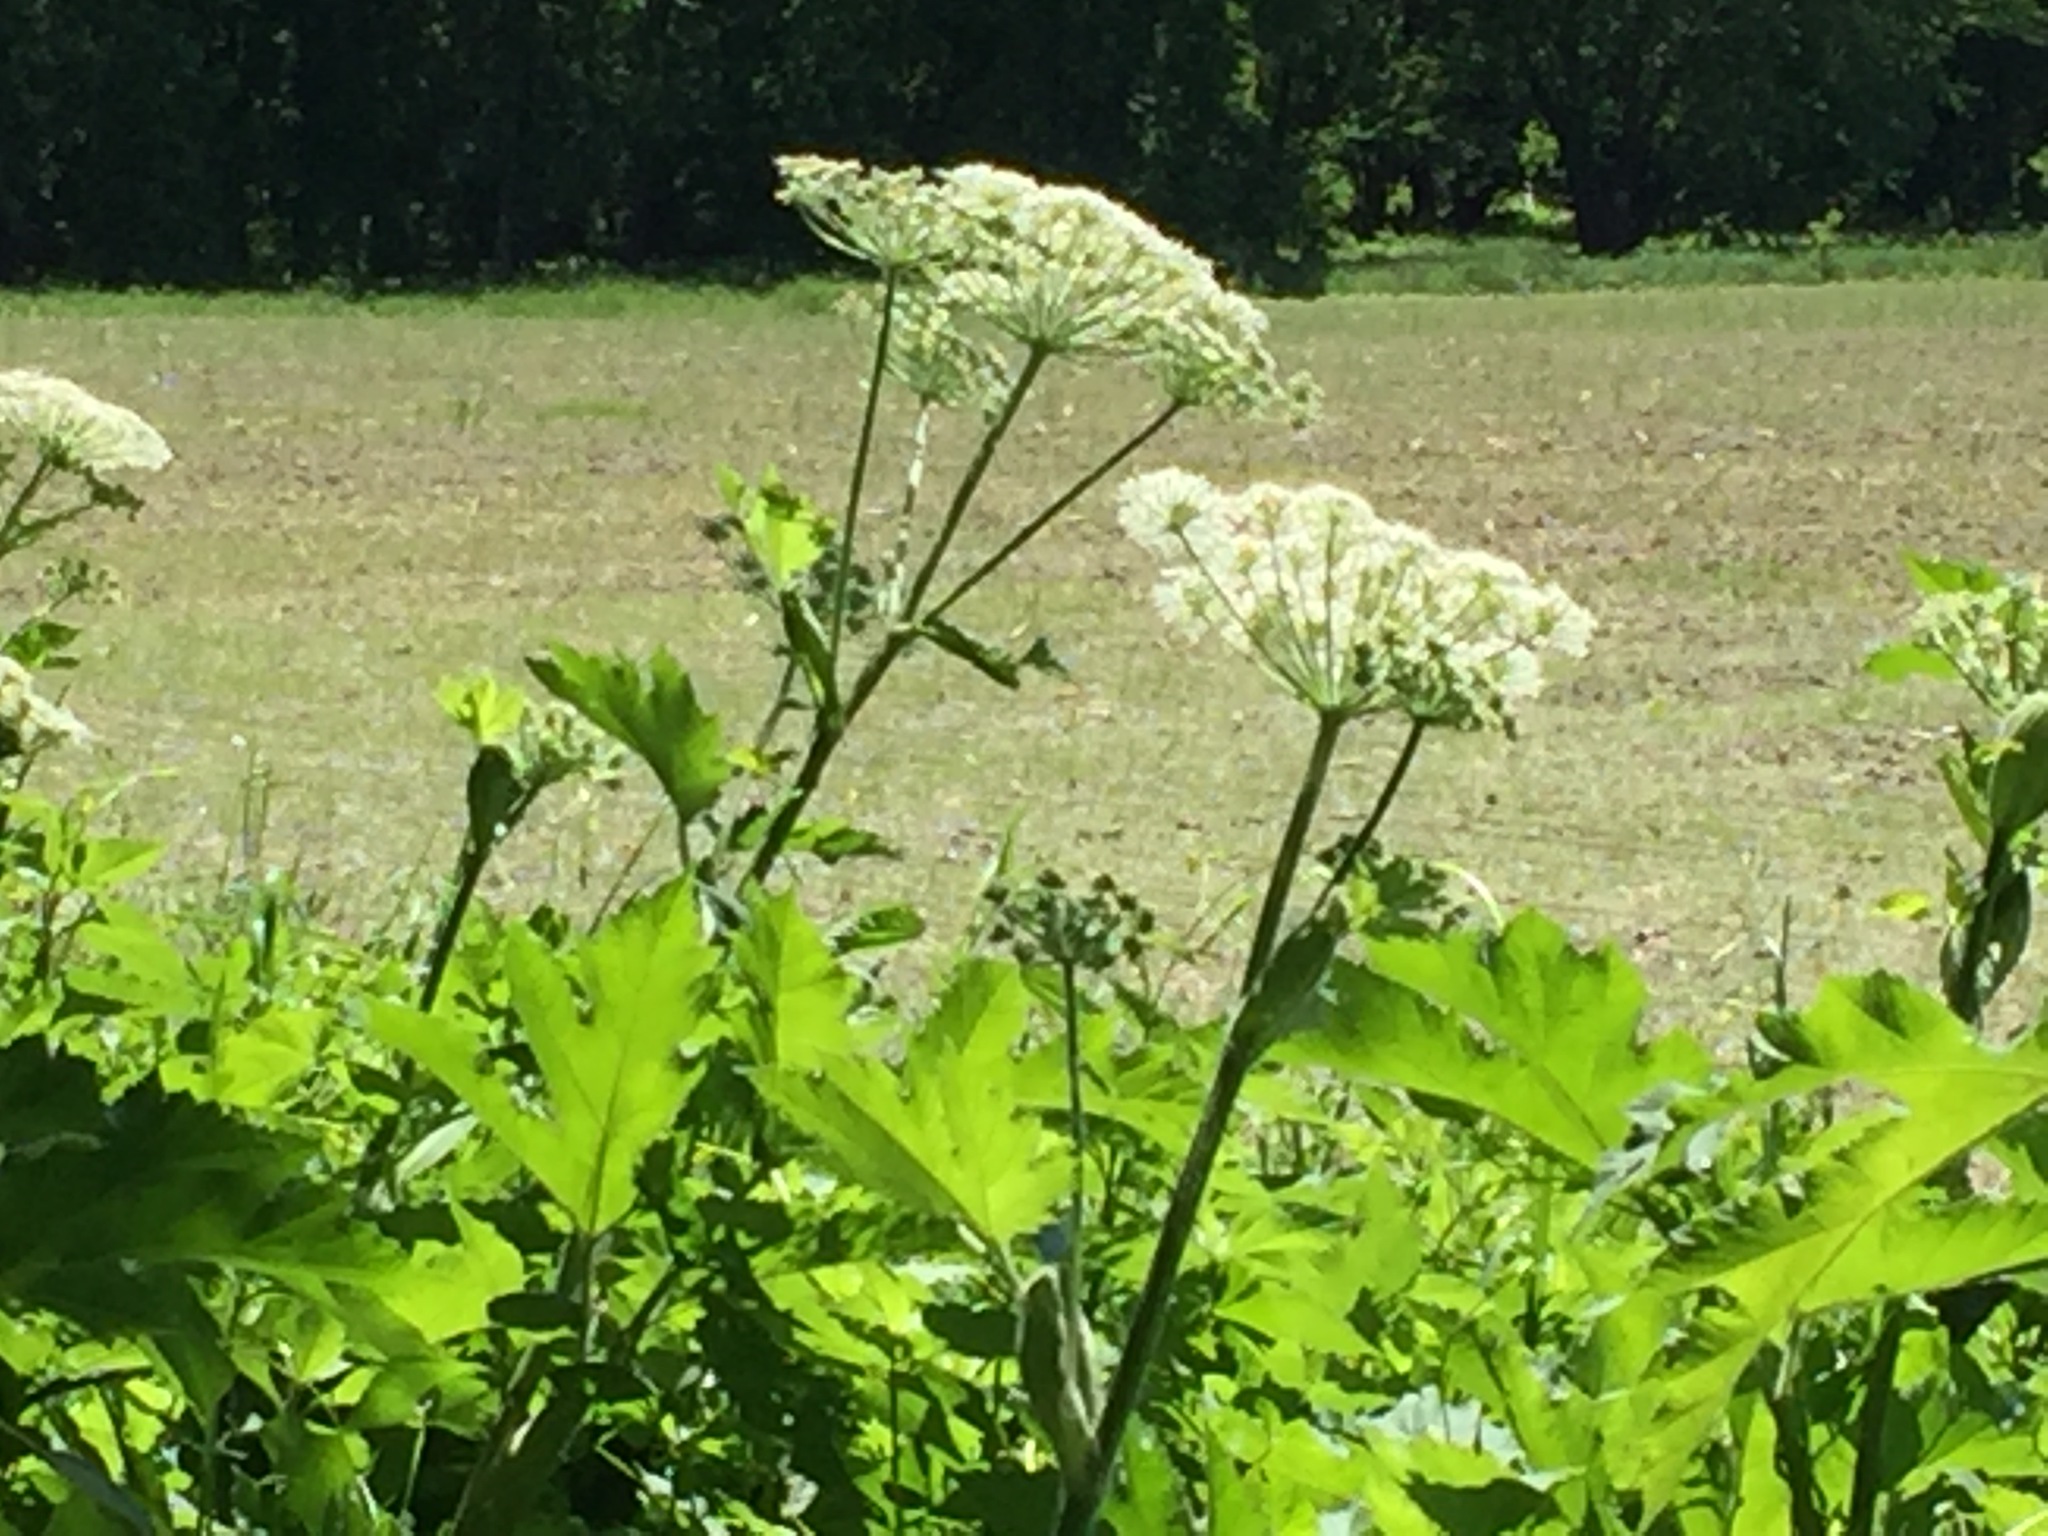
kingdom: Plantae
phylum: Tracheophyta
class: Magnoliopsida
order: Apiales
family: Apiaceae
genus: Heracleum
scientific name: Heracleum maximum
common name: American cow parsnip
